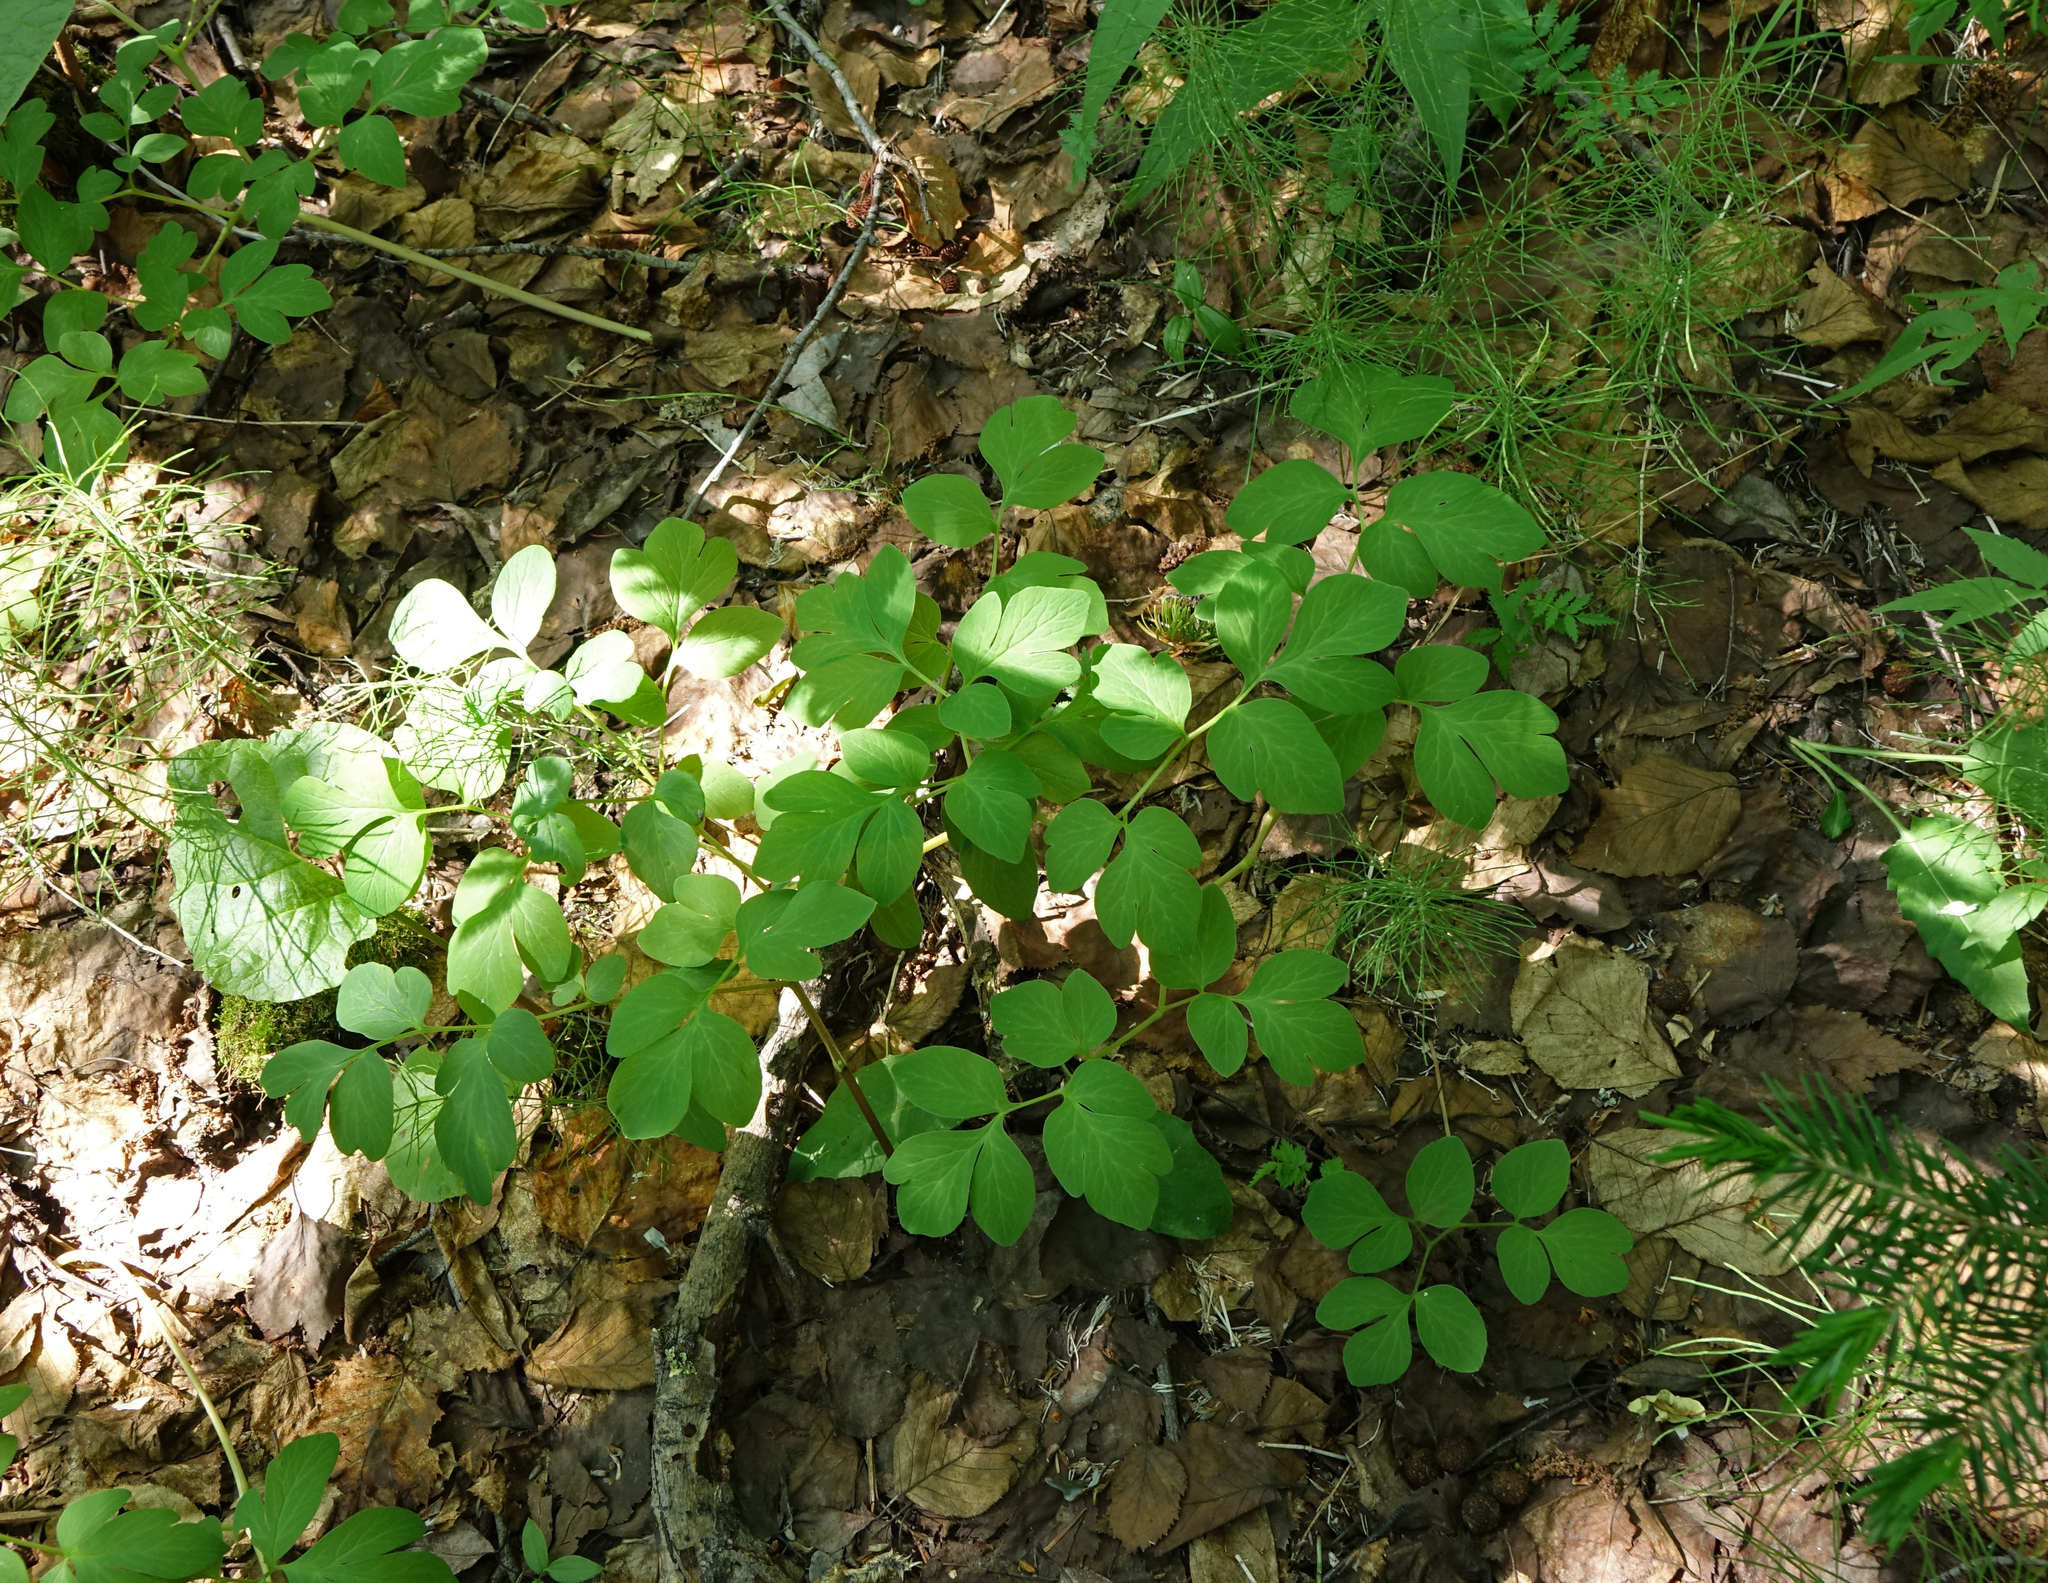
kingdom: Plantae
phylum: Tracheophyta
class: Magnoliopsida
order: Ranunculales
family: Papaveraceae
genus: Corydalis
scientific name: Corydalis paeoniifolia
